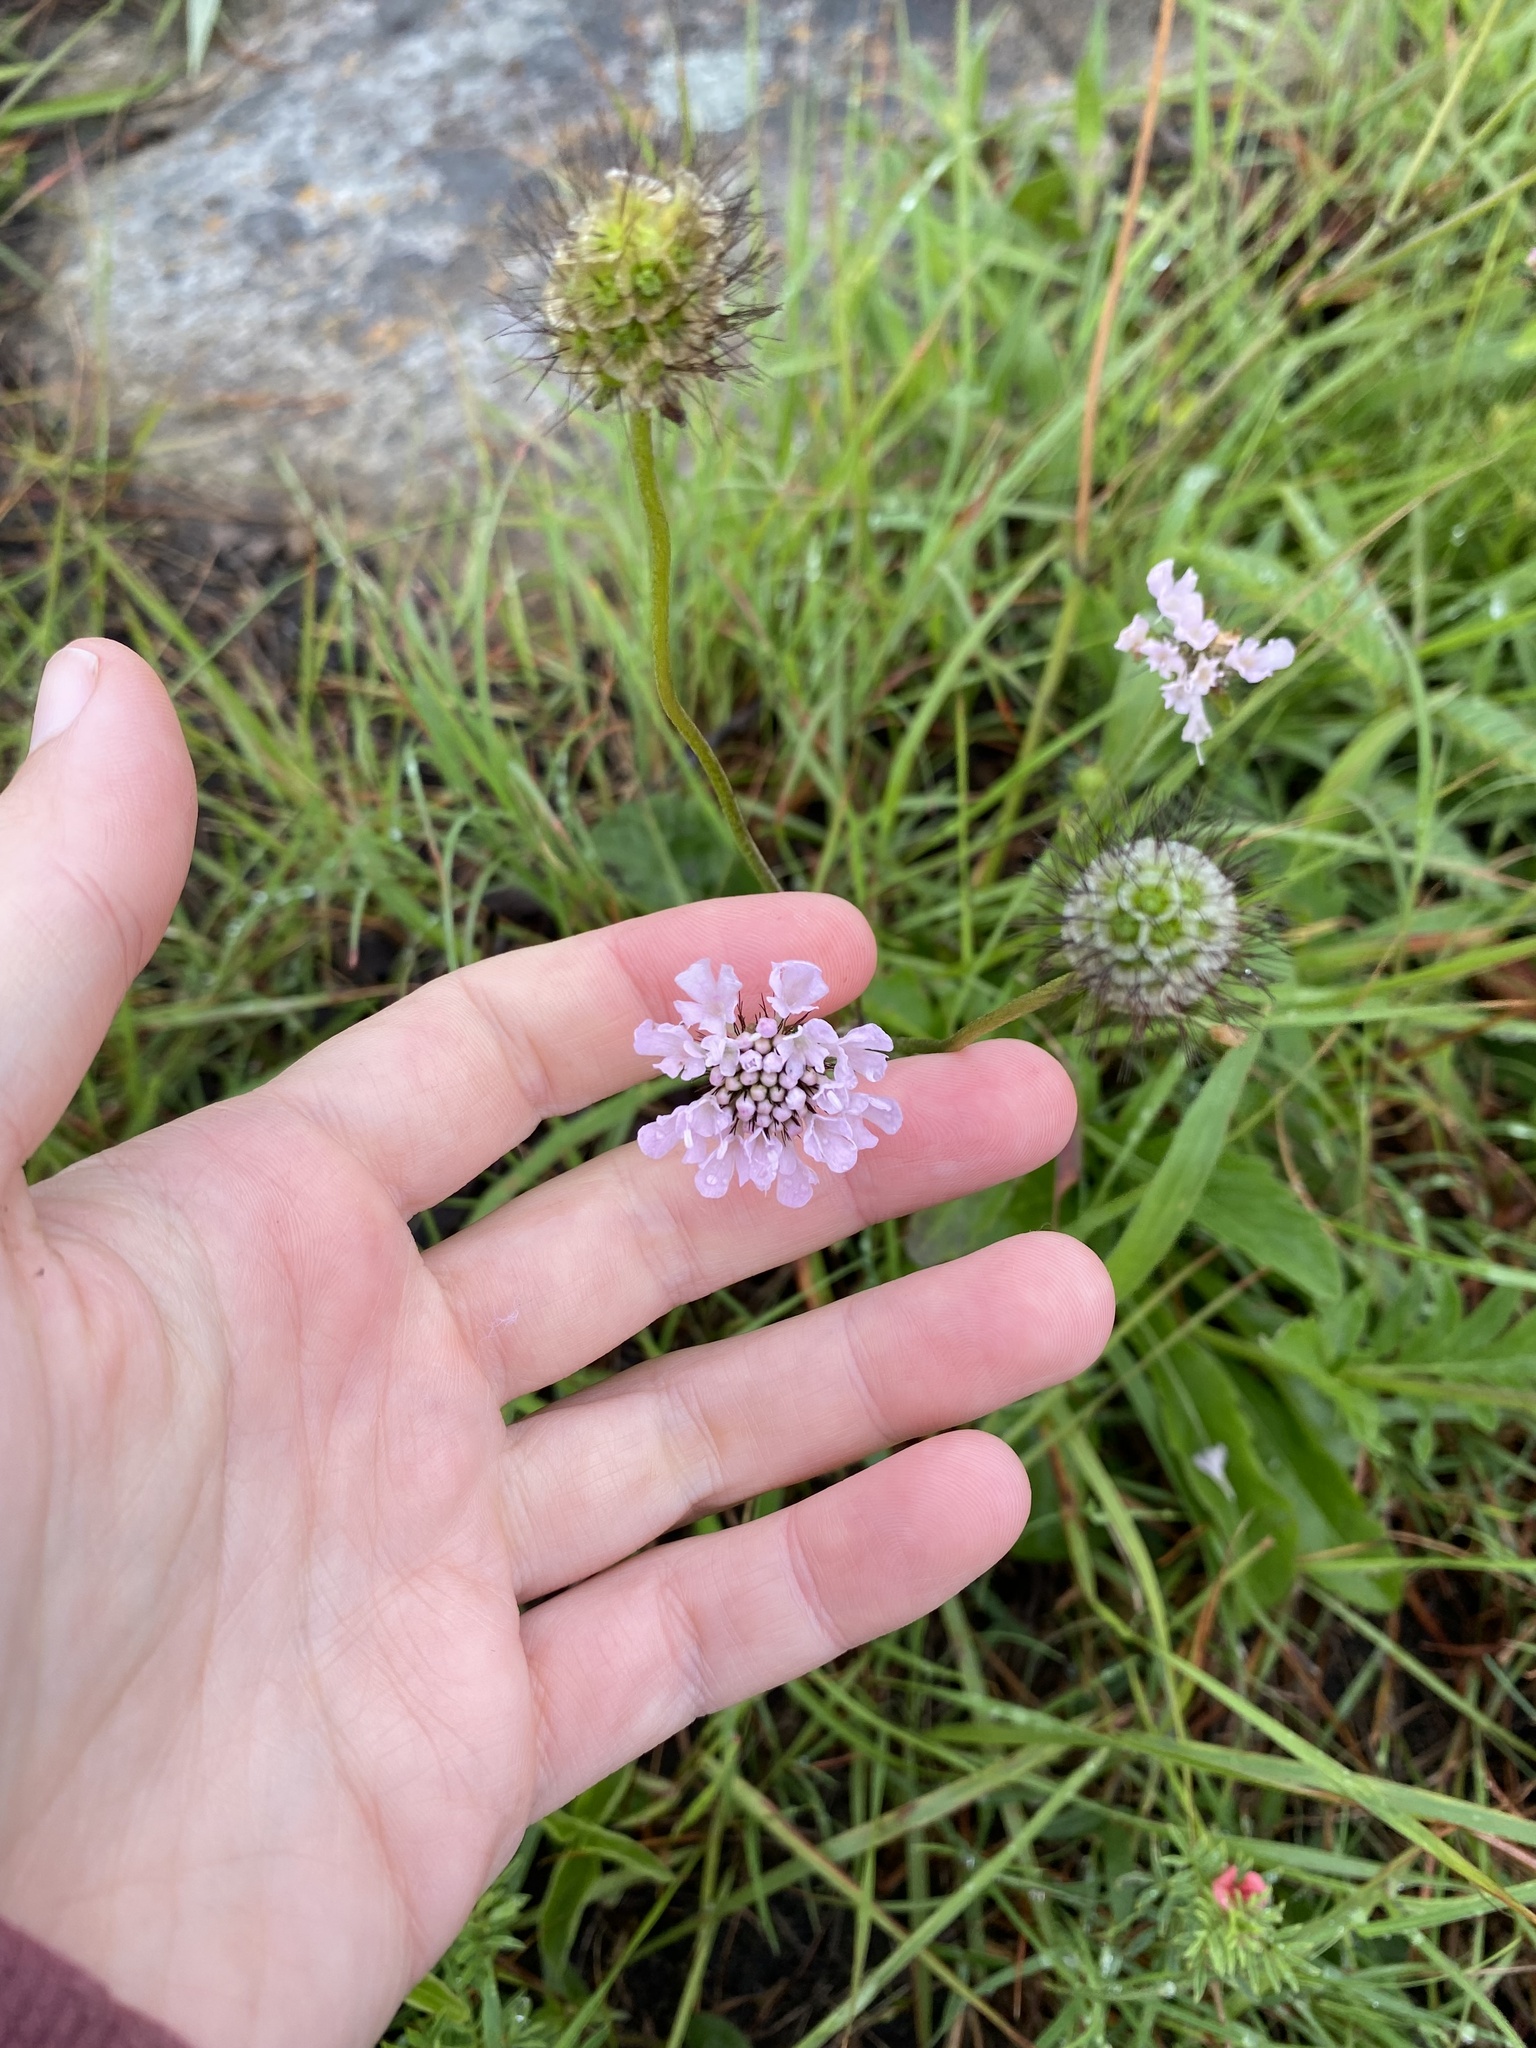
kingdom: Plantae
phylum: Tracheophyta
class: Magnoliopsida
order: Dipsacales
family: Caprifoliaceae
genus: Scabiosa
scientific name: Scabiosa columbaria
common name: Small scabious
